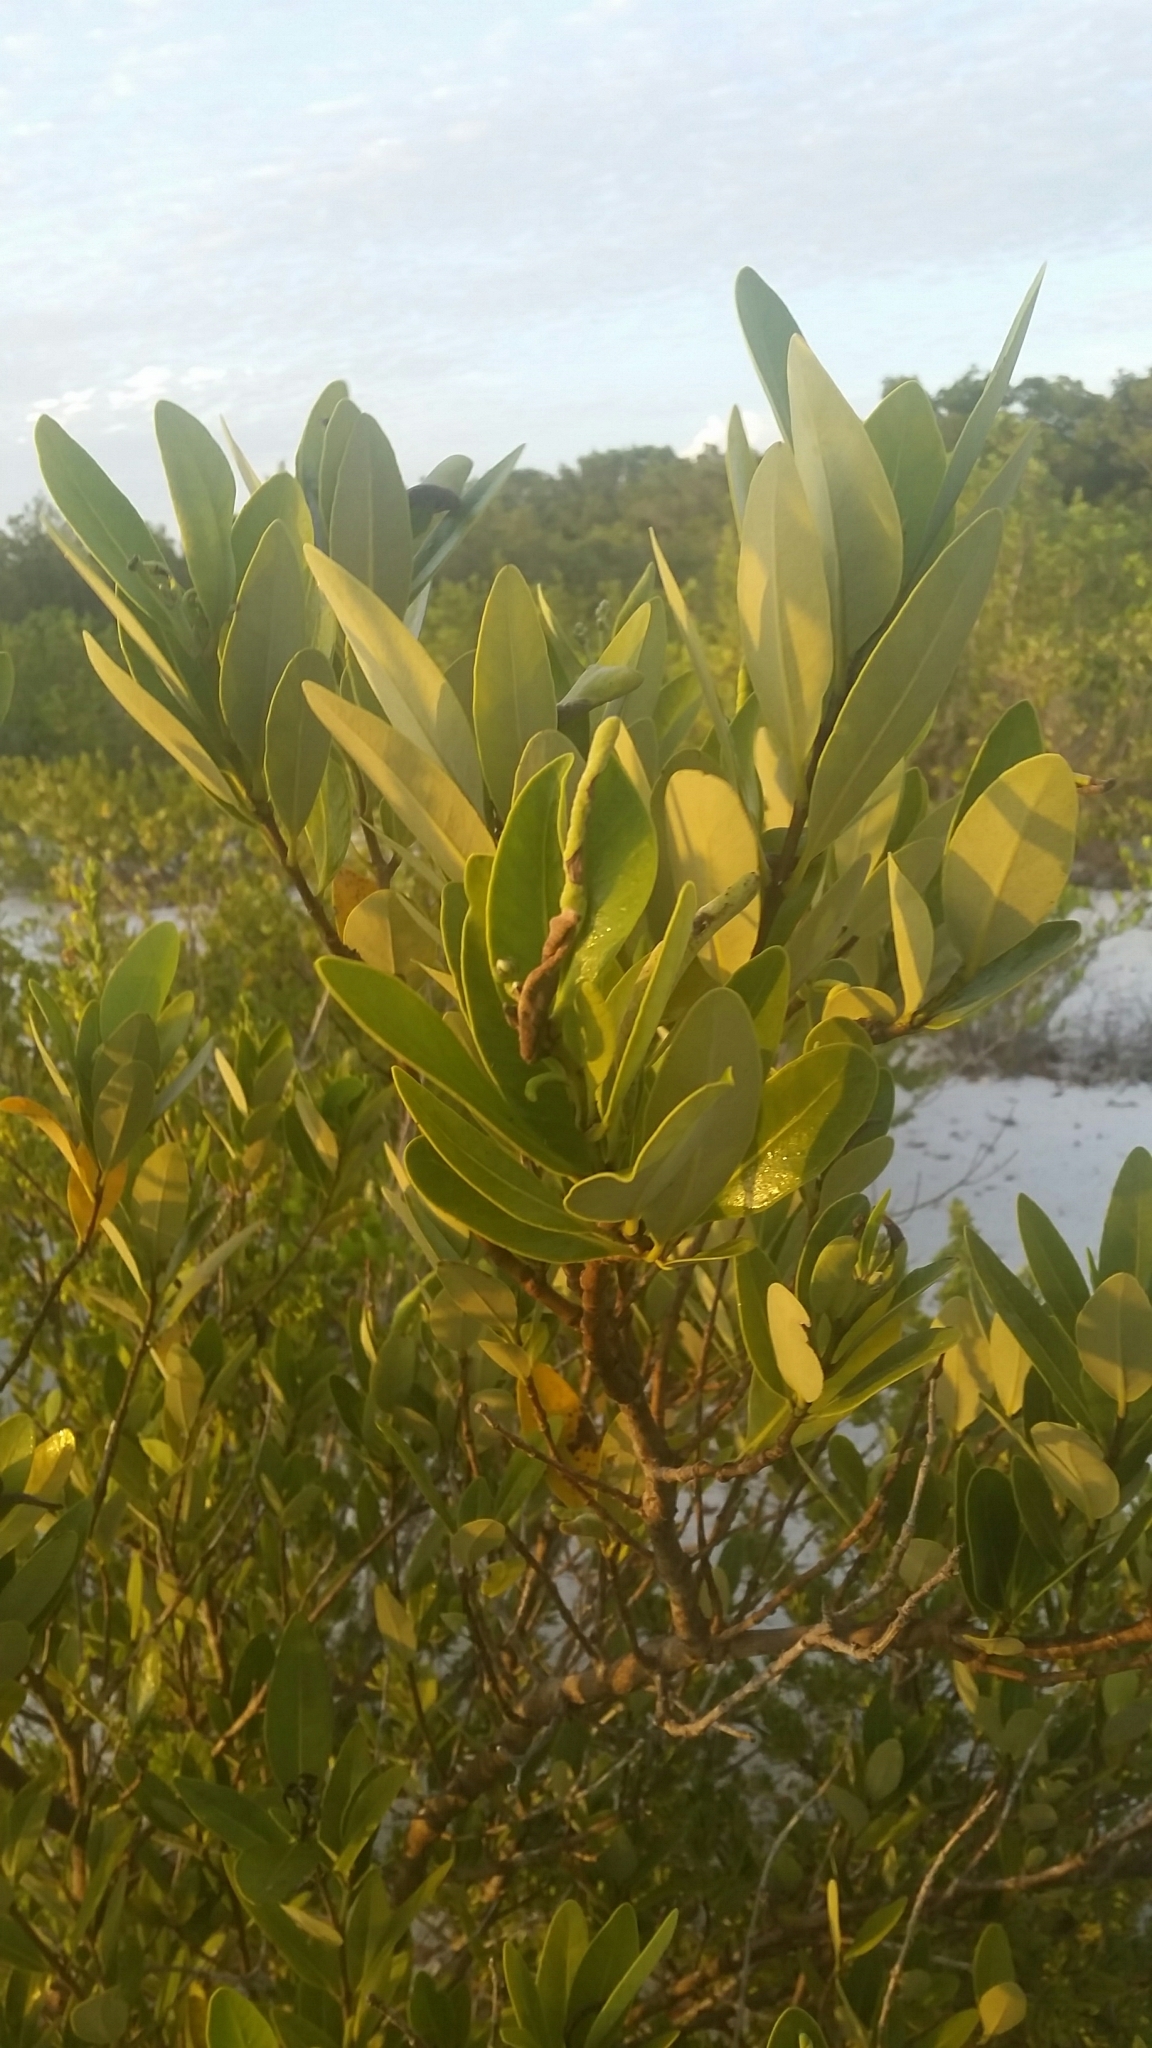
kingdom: Plantae
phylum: Tracheophyta
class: Magnoliopsida
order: Lamiales
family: Acanthaceae
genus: Avicennia
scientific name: Avicennia germinans
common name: Black mangrove
